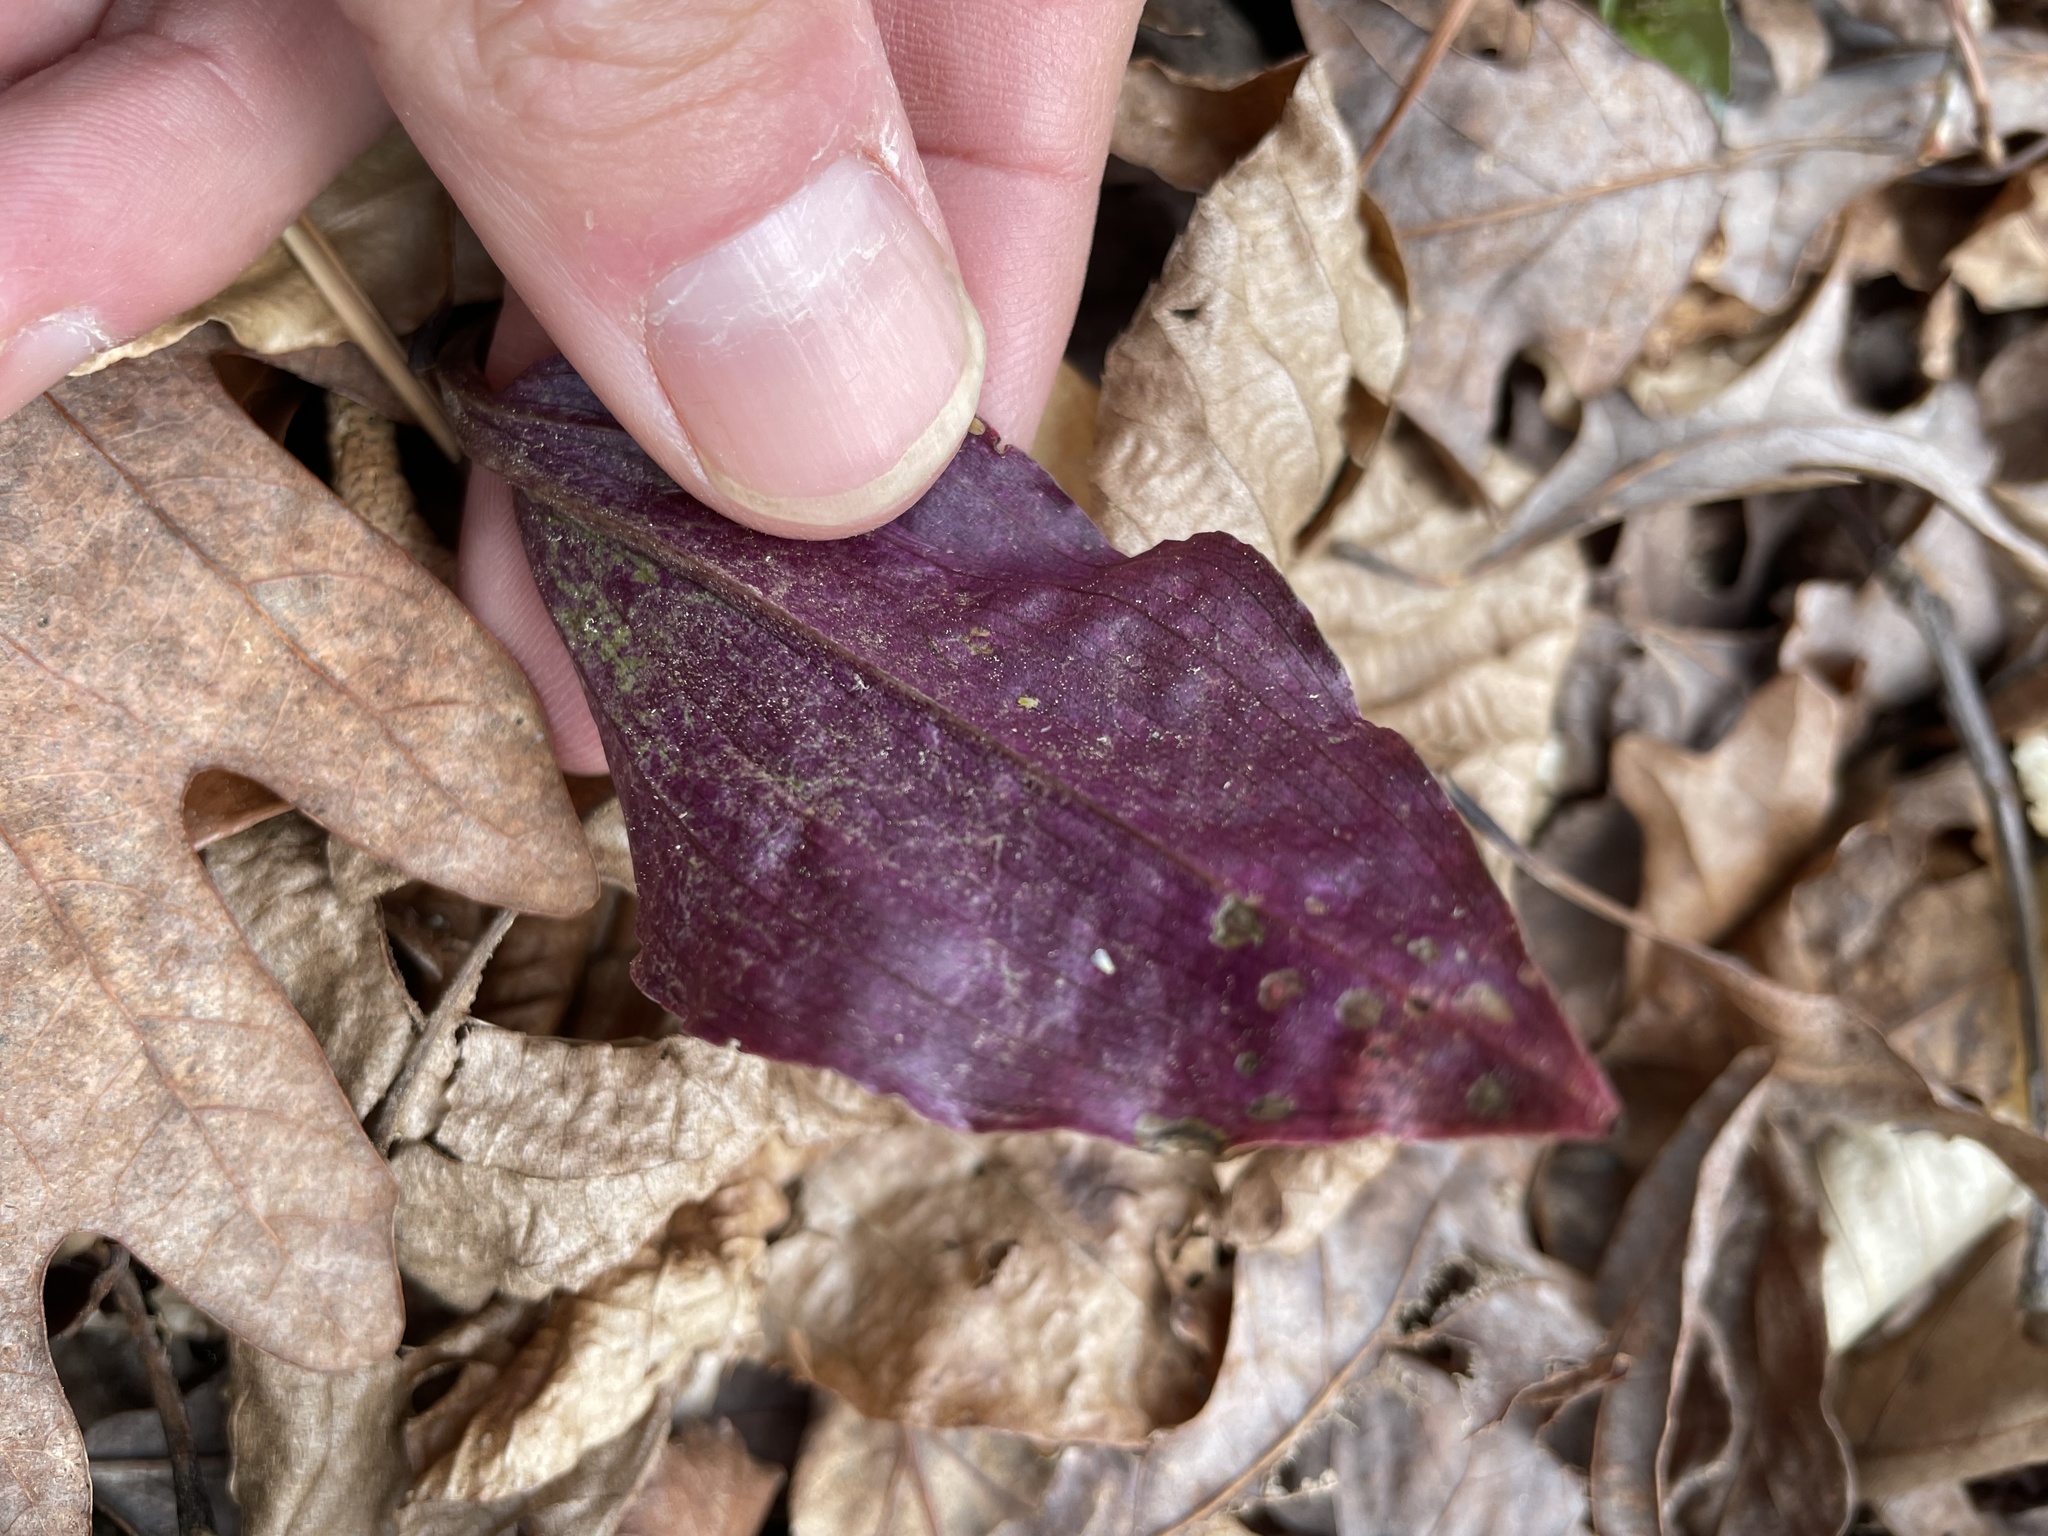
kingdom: Plantae
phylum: Tracheophyta
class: Liliopsida
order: Asparagales
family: Orchidaceae
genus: Tipularia
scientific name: Tipularia discolor
